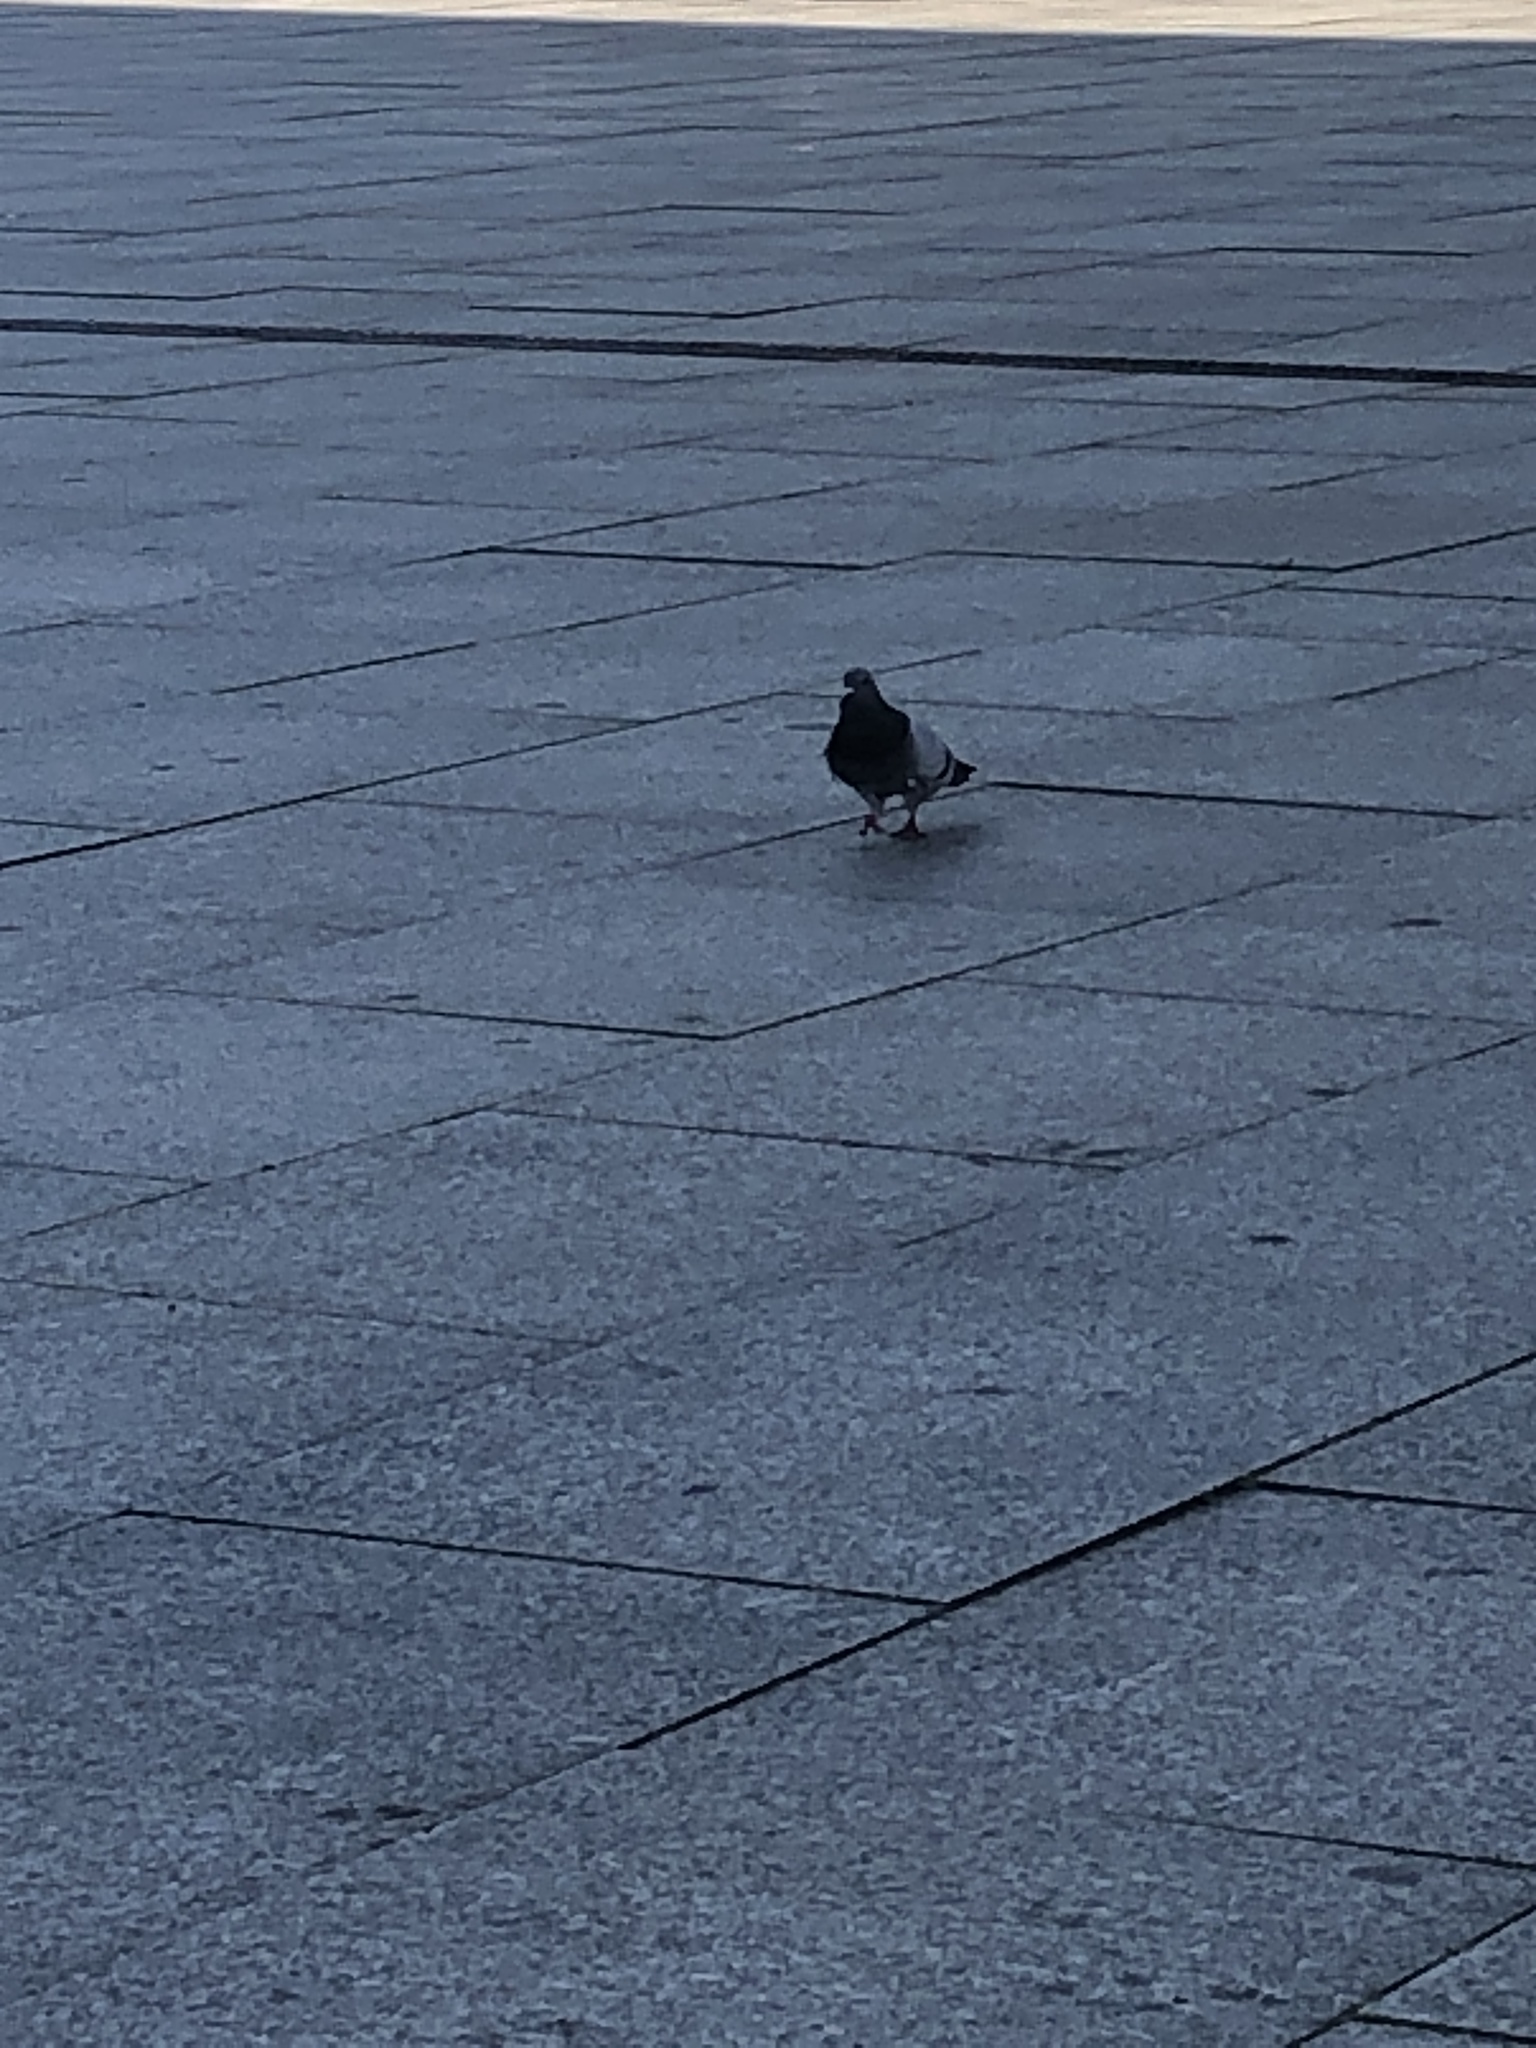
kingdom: Animalia
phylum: Chordata
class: Aves
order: Columbiformes
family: Columbidae
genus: Columba
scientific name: Columba livia
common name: Rock pigeon
